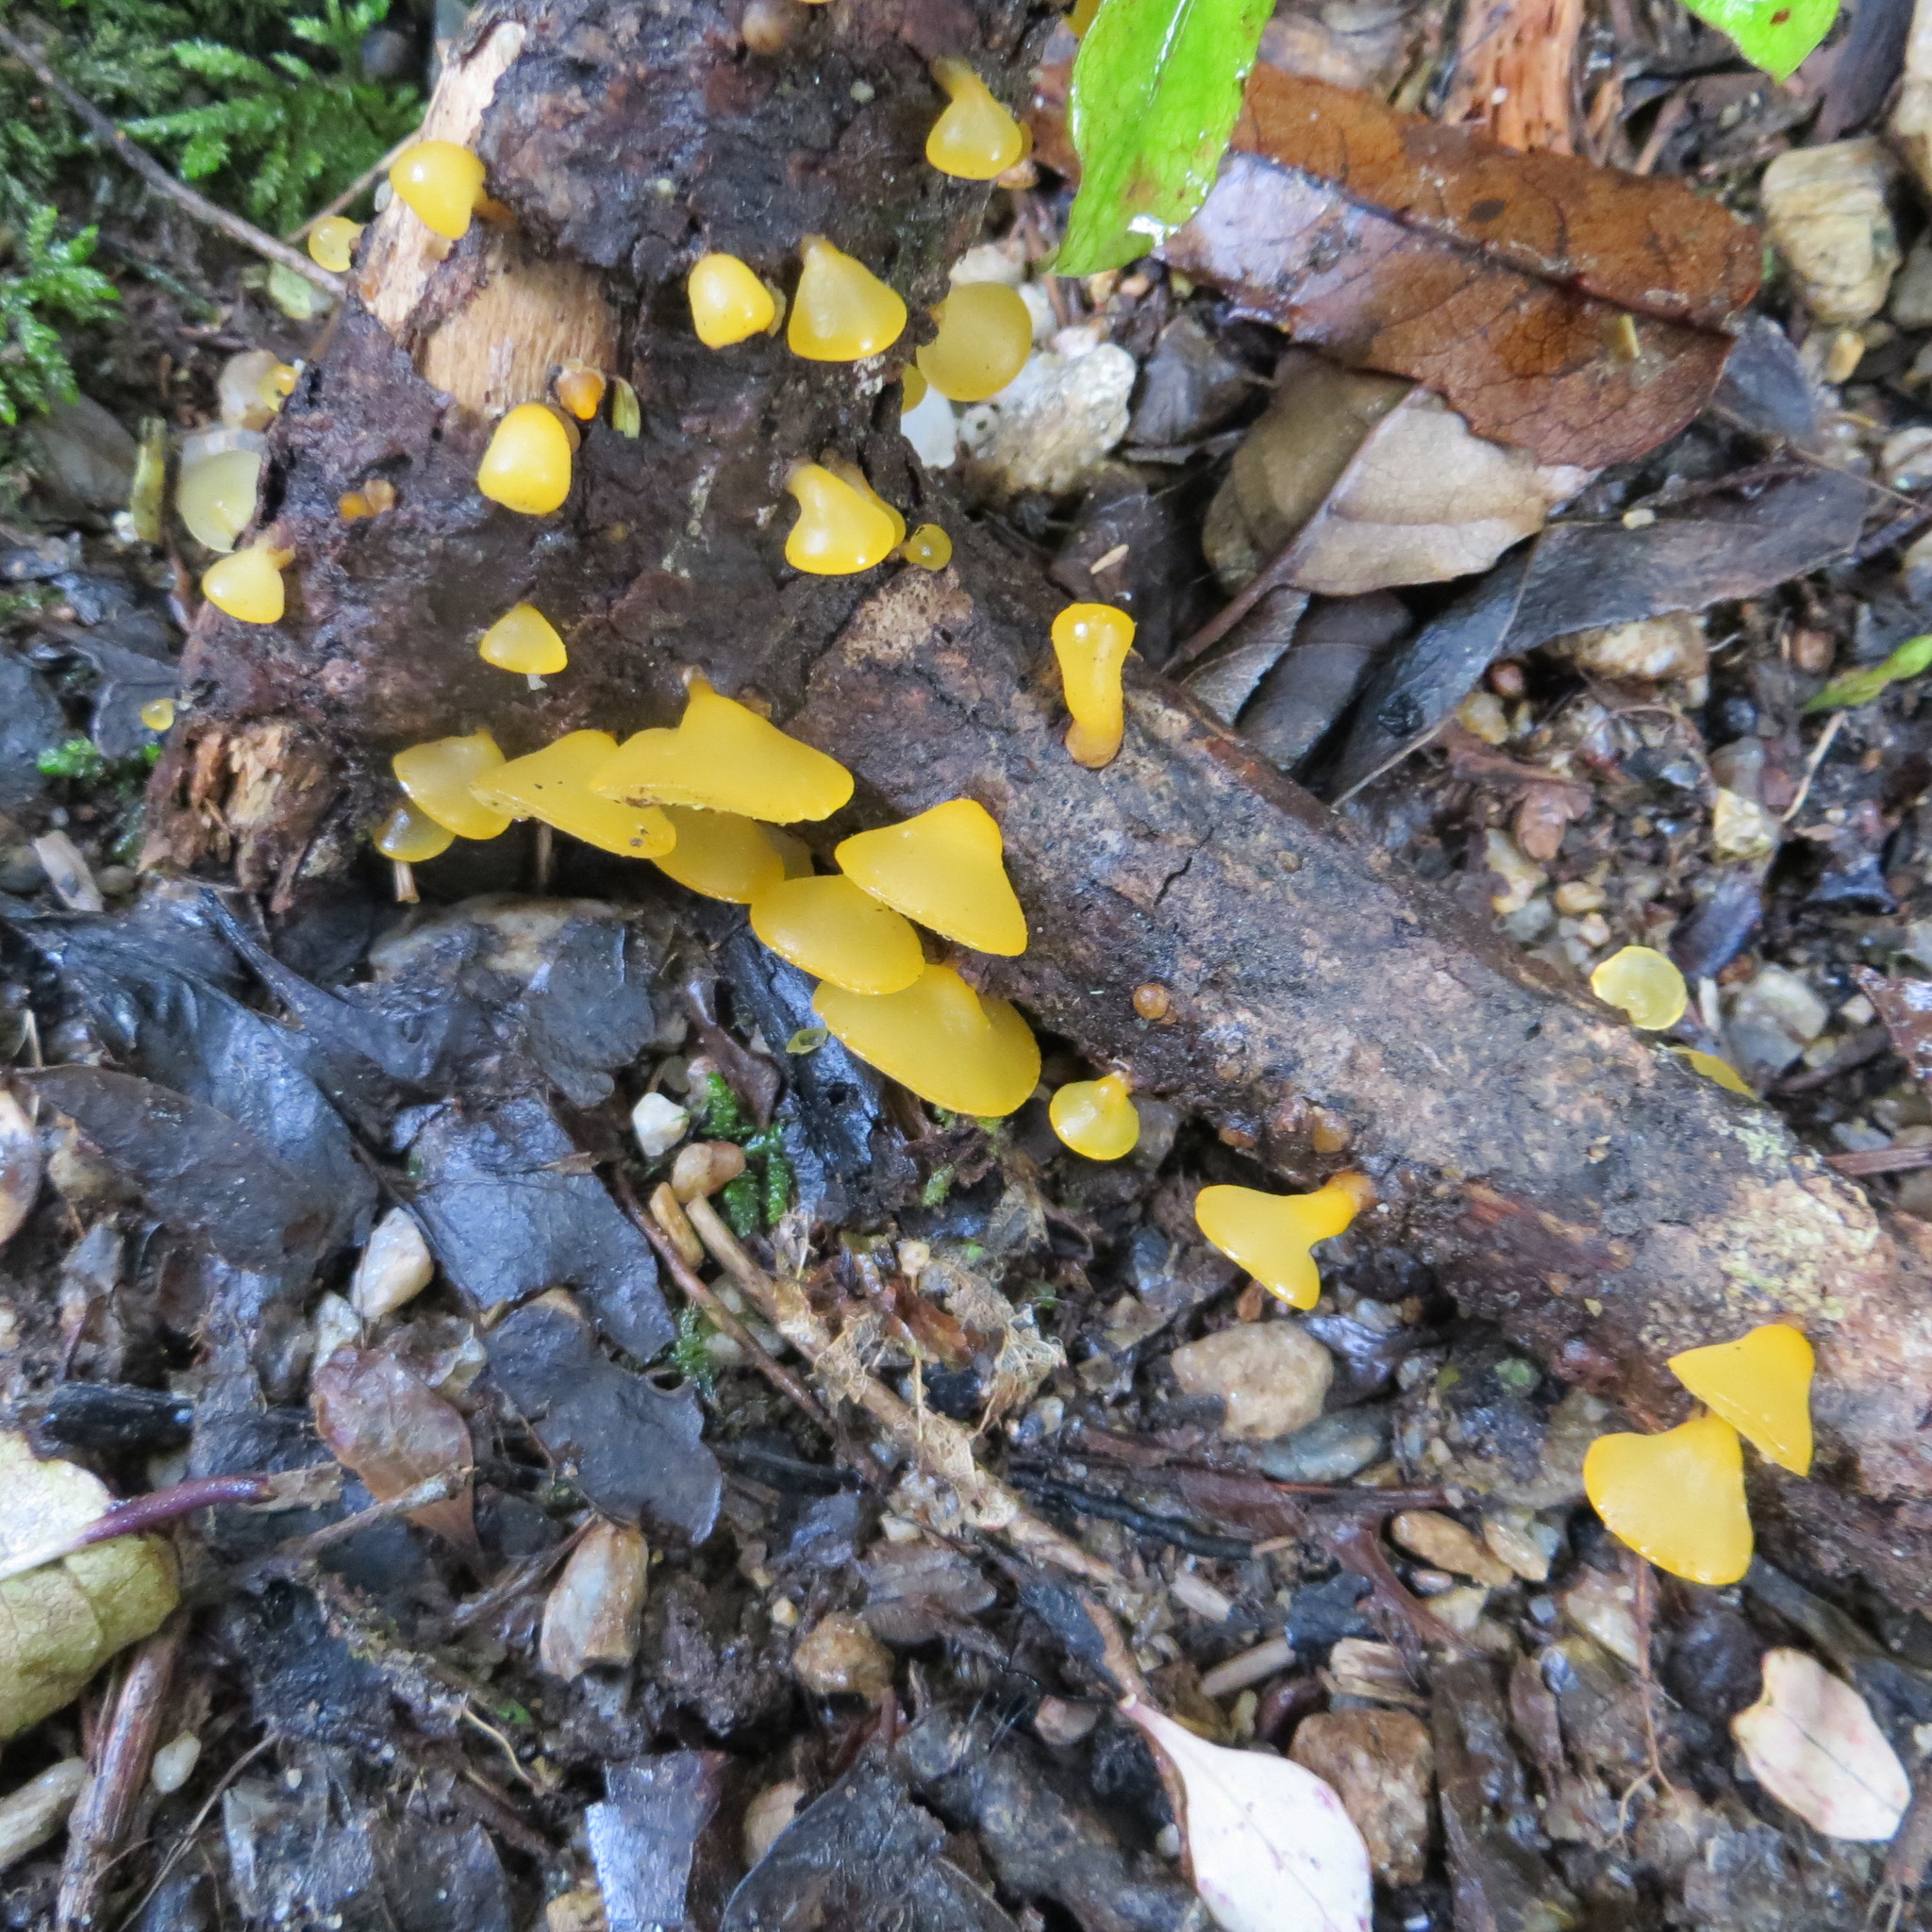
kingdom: Fungi
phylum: Basidiomycota
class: Dacrymycetes
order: Dacrymycetales
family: Dacrymycetaceae
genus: Heterotextus
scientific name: Heterotextus miltinus
